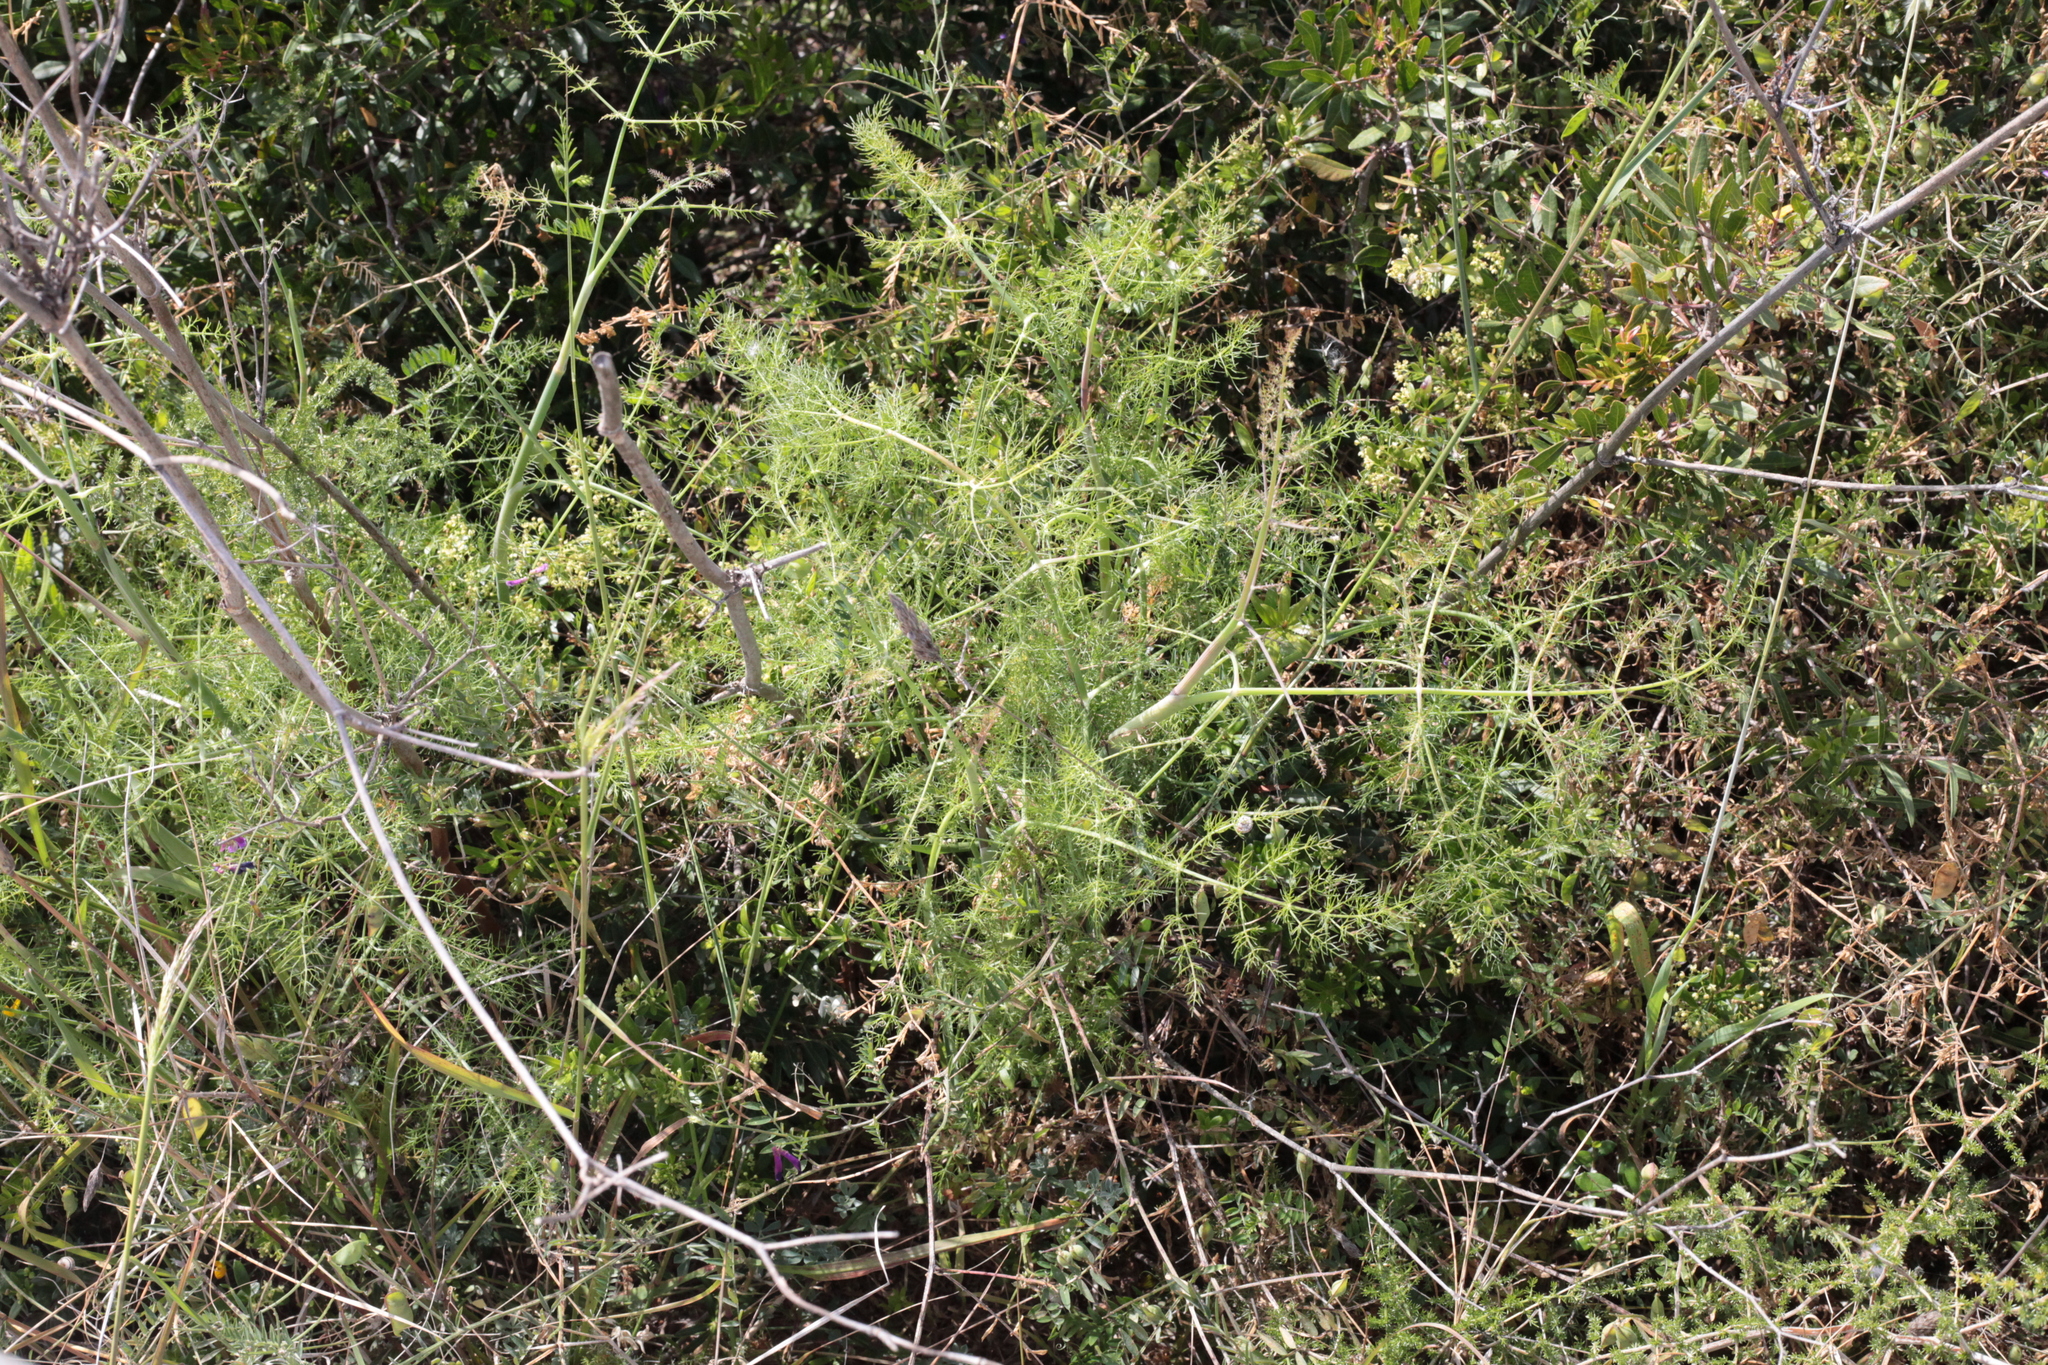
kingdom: Plantae
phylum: Tracheophyta
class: Magnoliopsida
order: Apiales
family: Apiaceae
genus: Foeniculum
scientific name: Foeniculum vulgare
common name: Fennel
